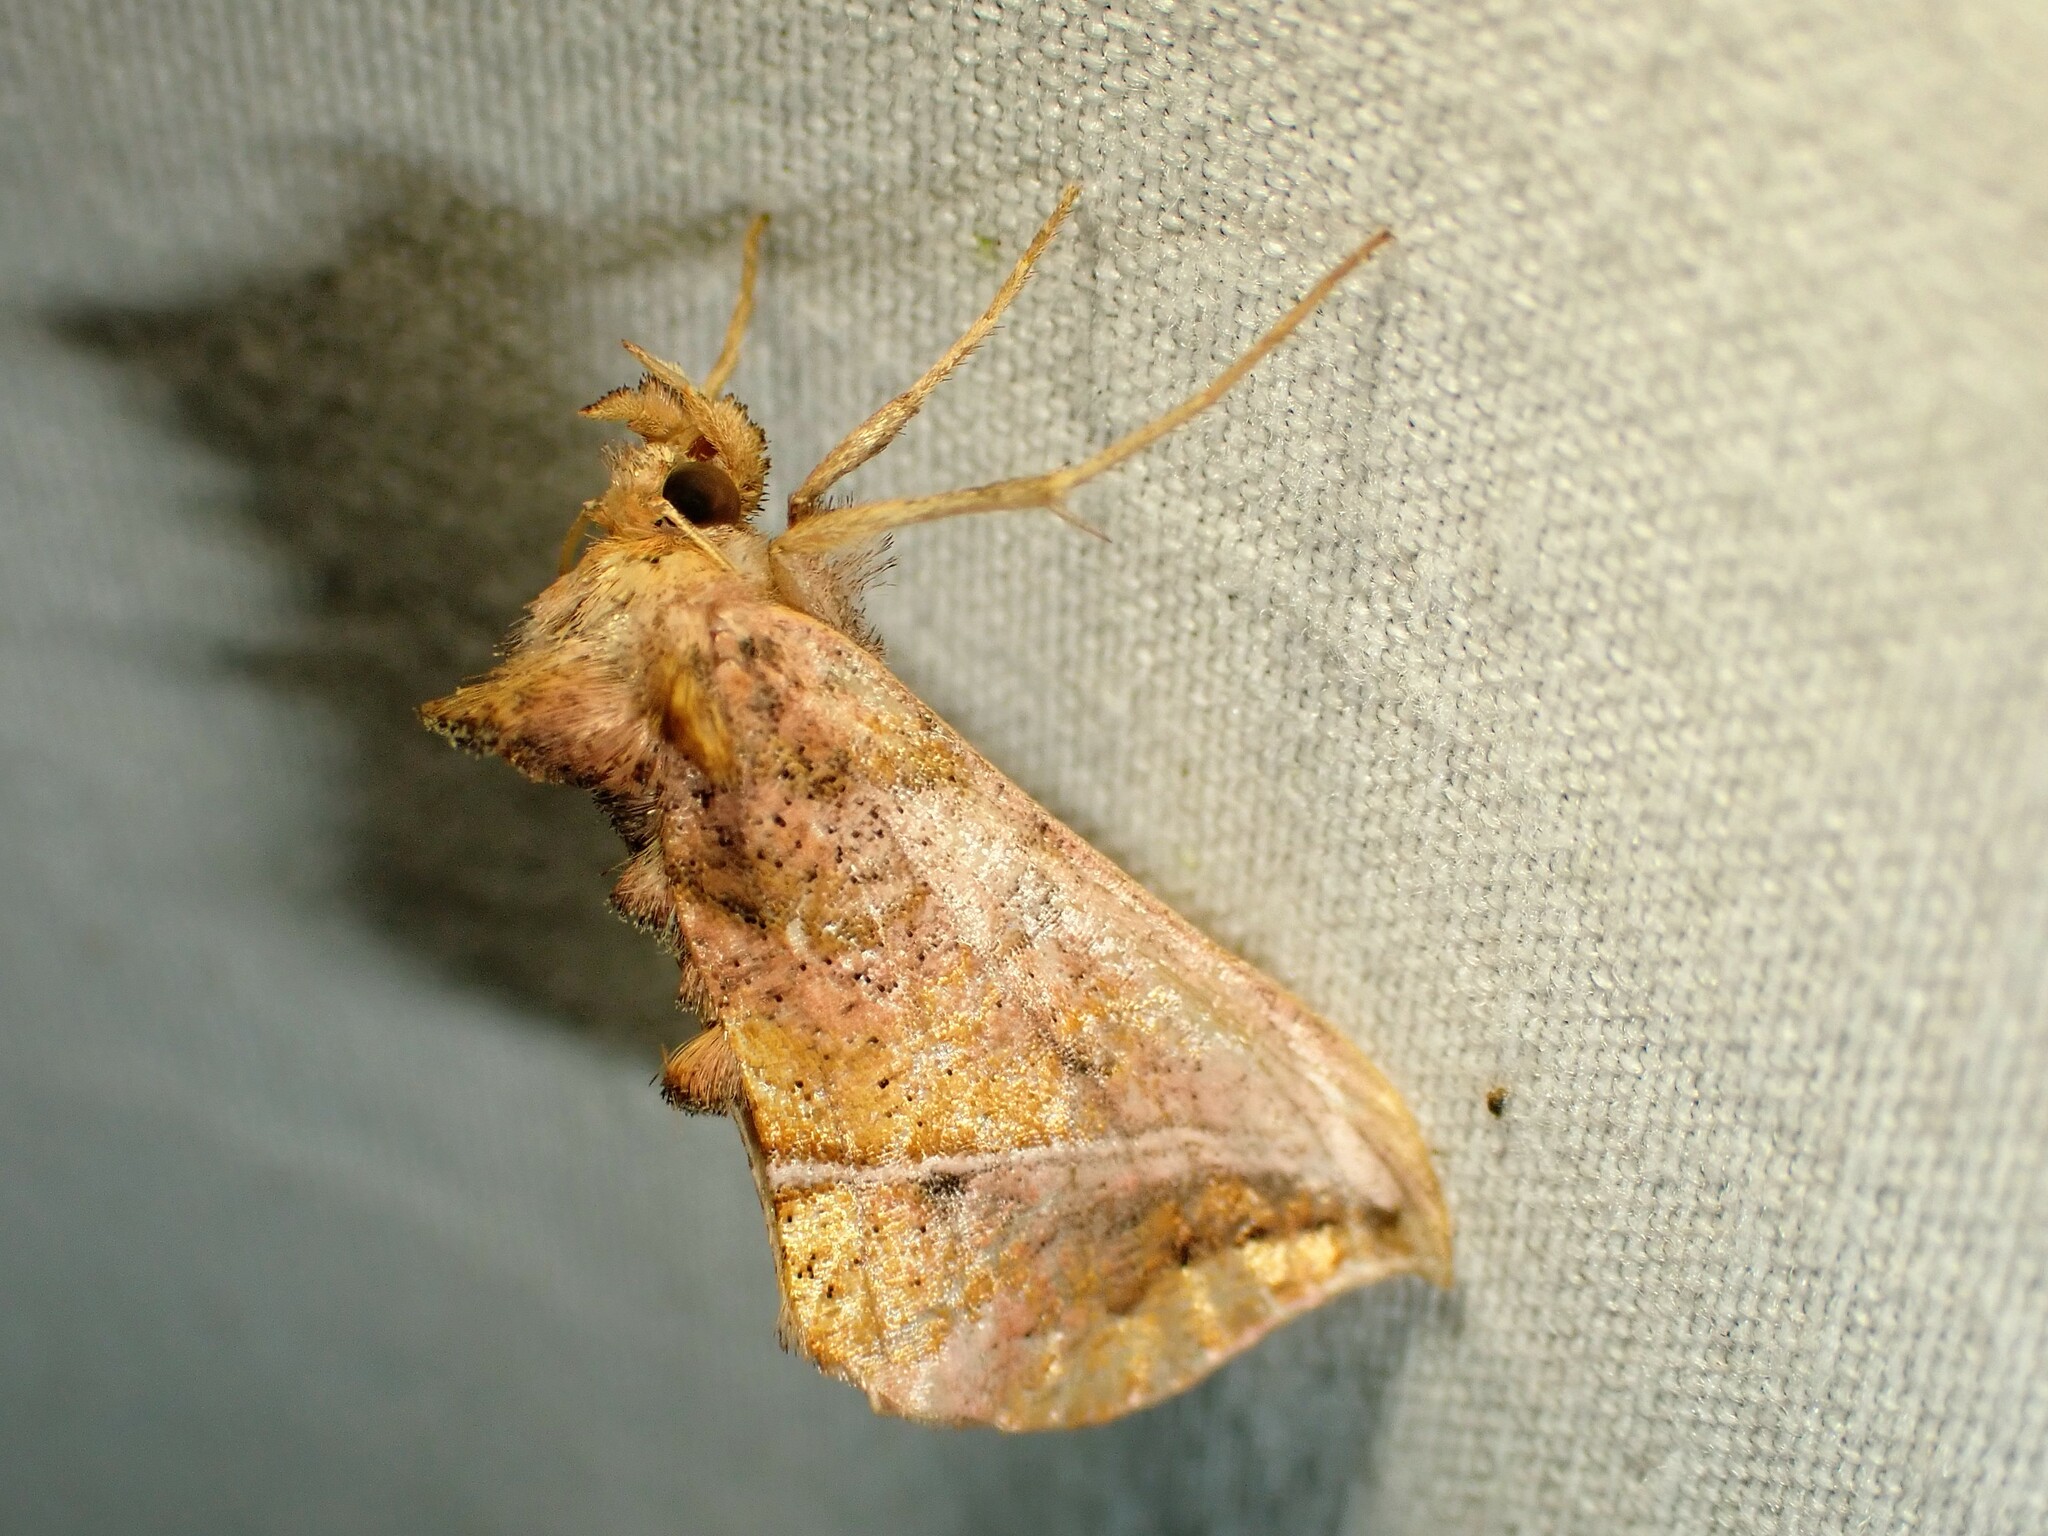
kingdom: Animalia
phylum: Arthropoda
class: Insecta
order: Lepidoptera
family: Noctuidae
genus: Pseudeva
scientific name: Pseudeva purpurigera
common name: Straight-lined looper moth
